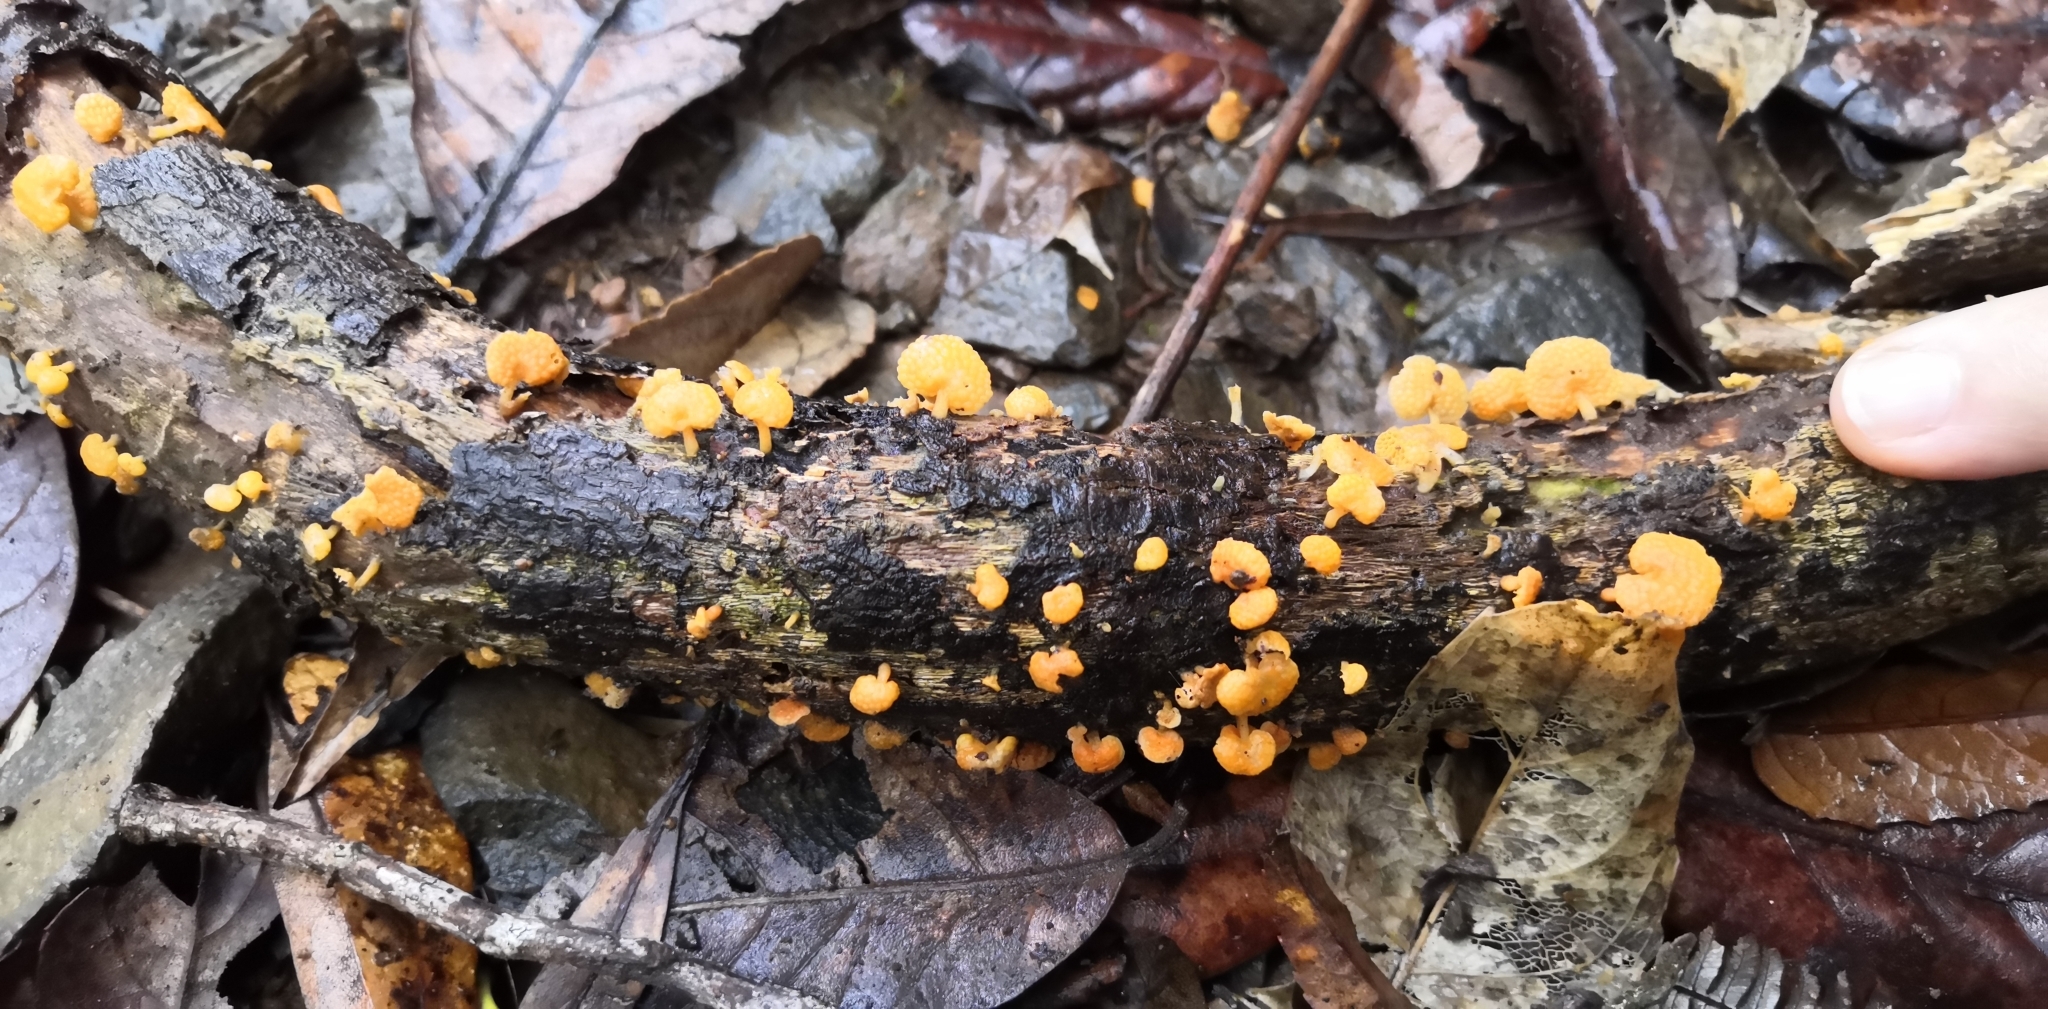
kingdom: Fungi
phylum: Basidiomycota
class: Agaricomycetes
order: Agaricales
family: Mycenaceae
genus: Favolaschia
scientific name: Favolaschia claudopus
